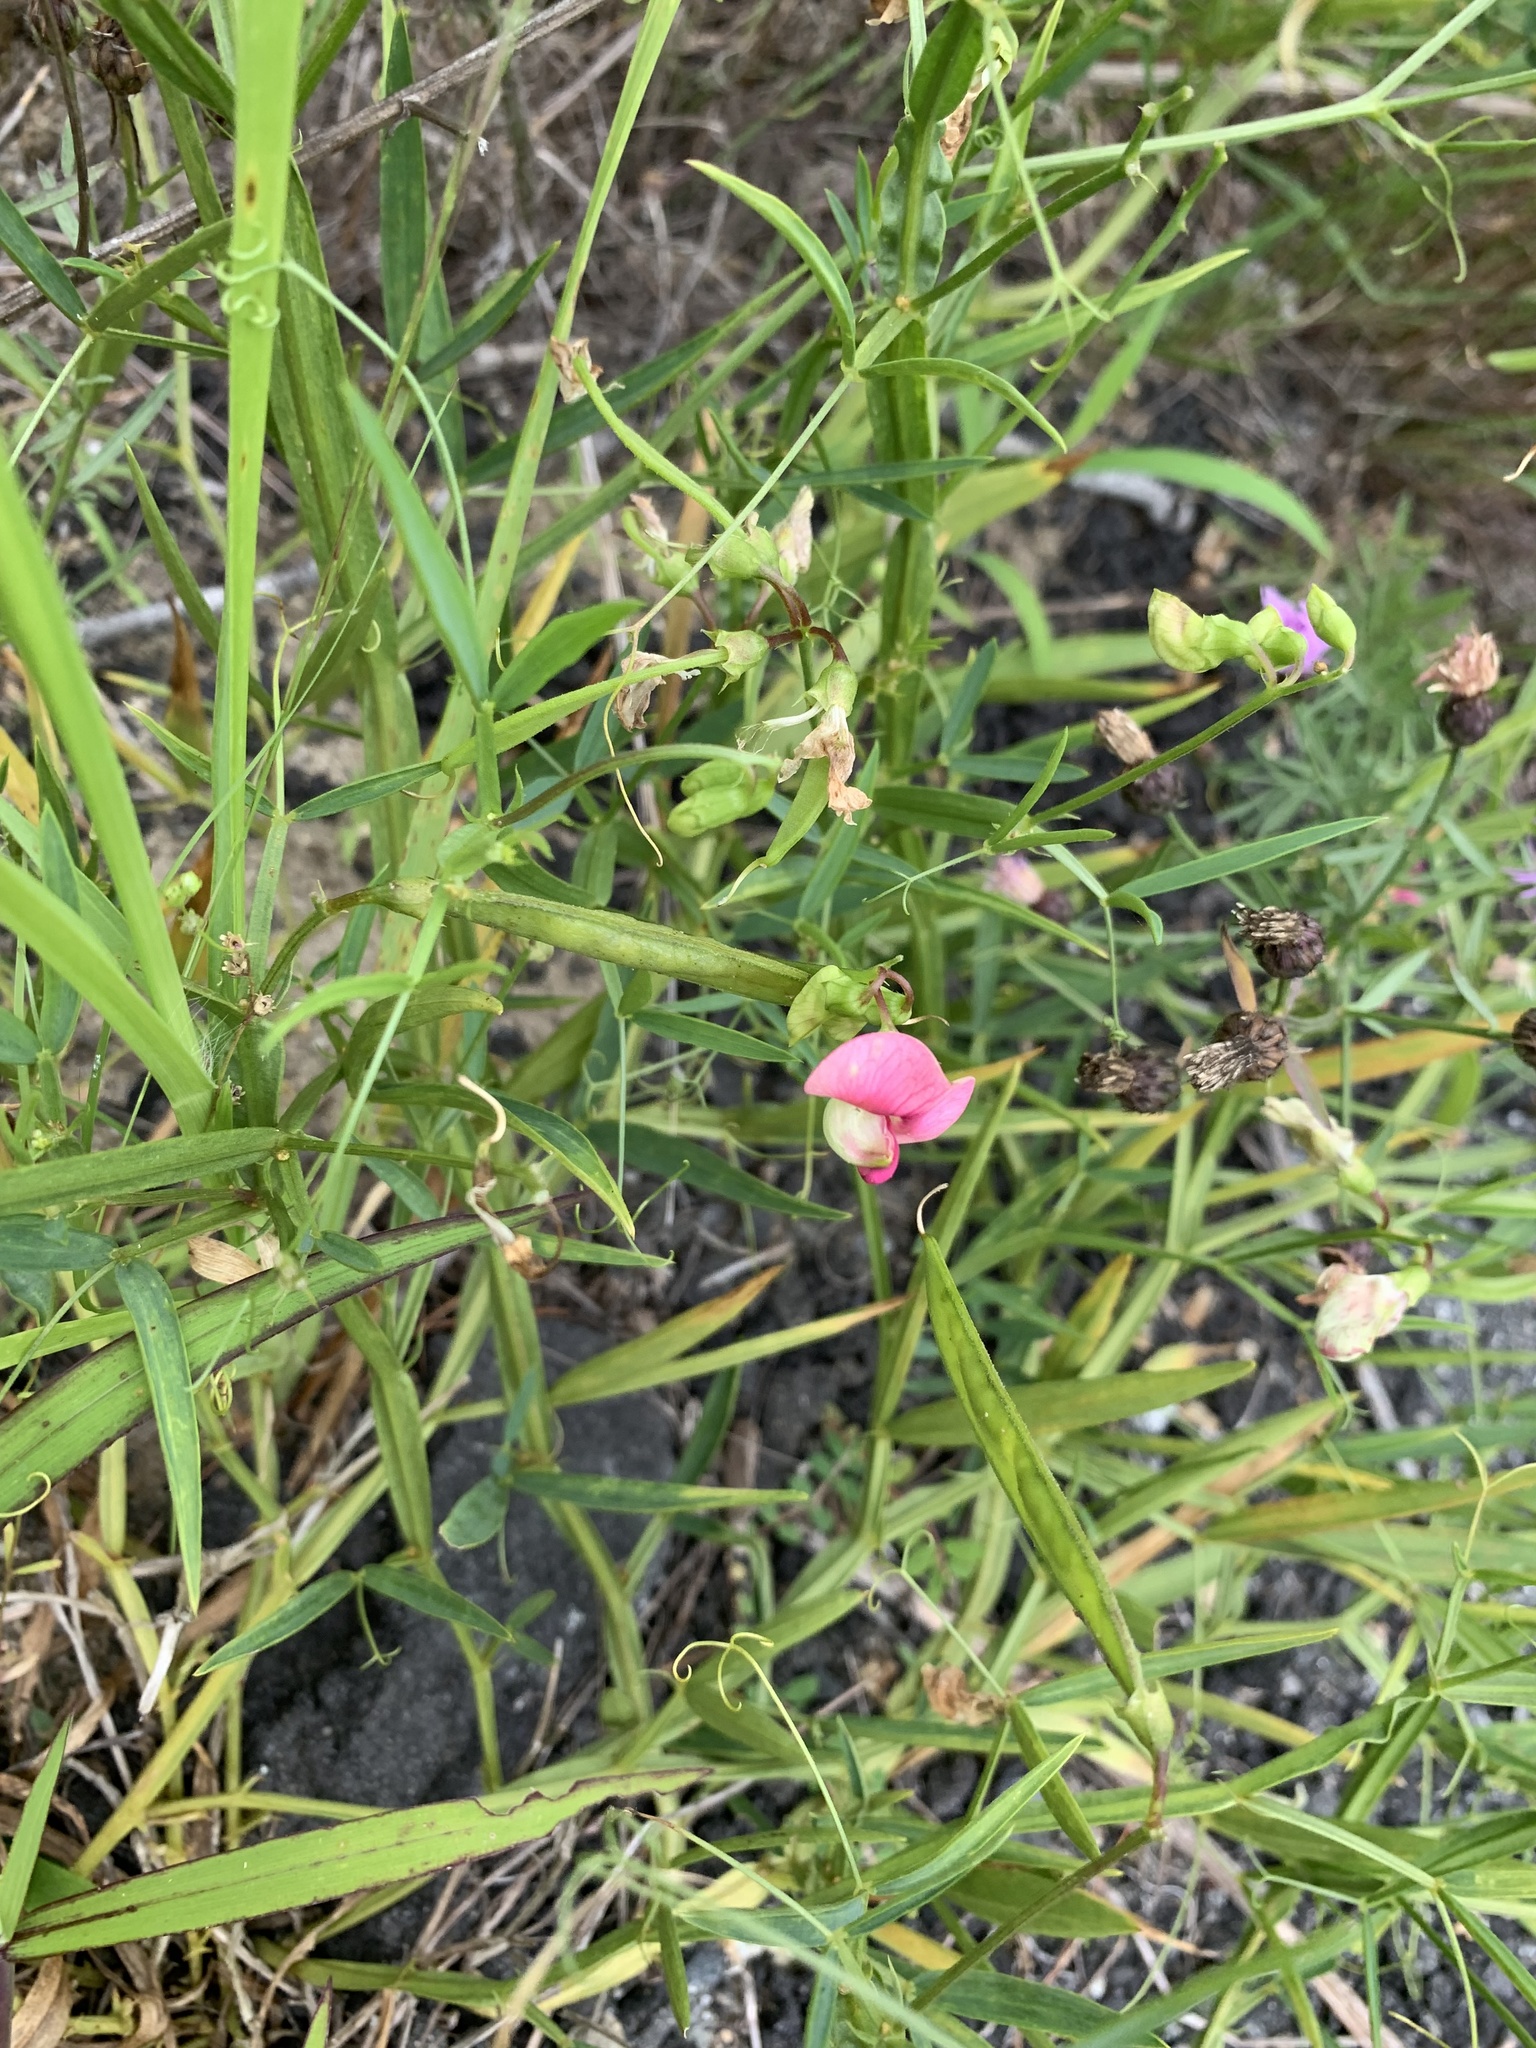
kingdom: Plantae
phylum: Tracheophyta
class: Magnoliopsida
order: Fabales
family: Fabaceae
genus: Lathyrus
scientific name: Lathyrus sylvestris
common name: Flat pea
